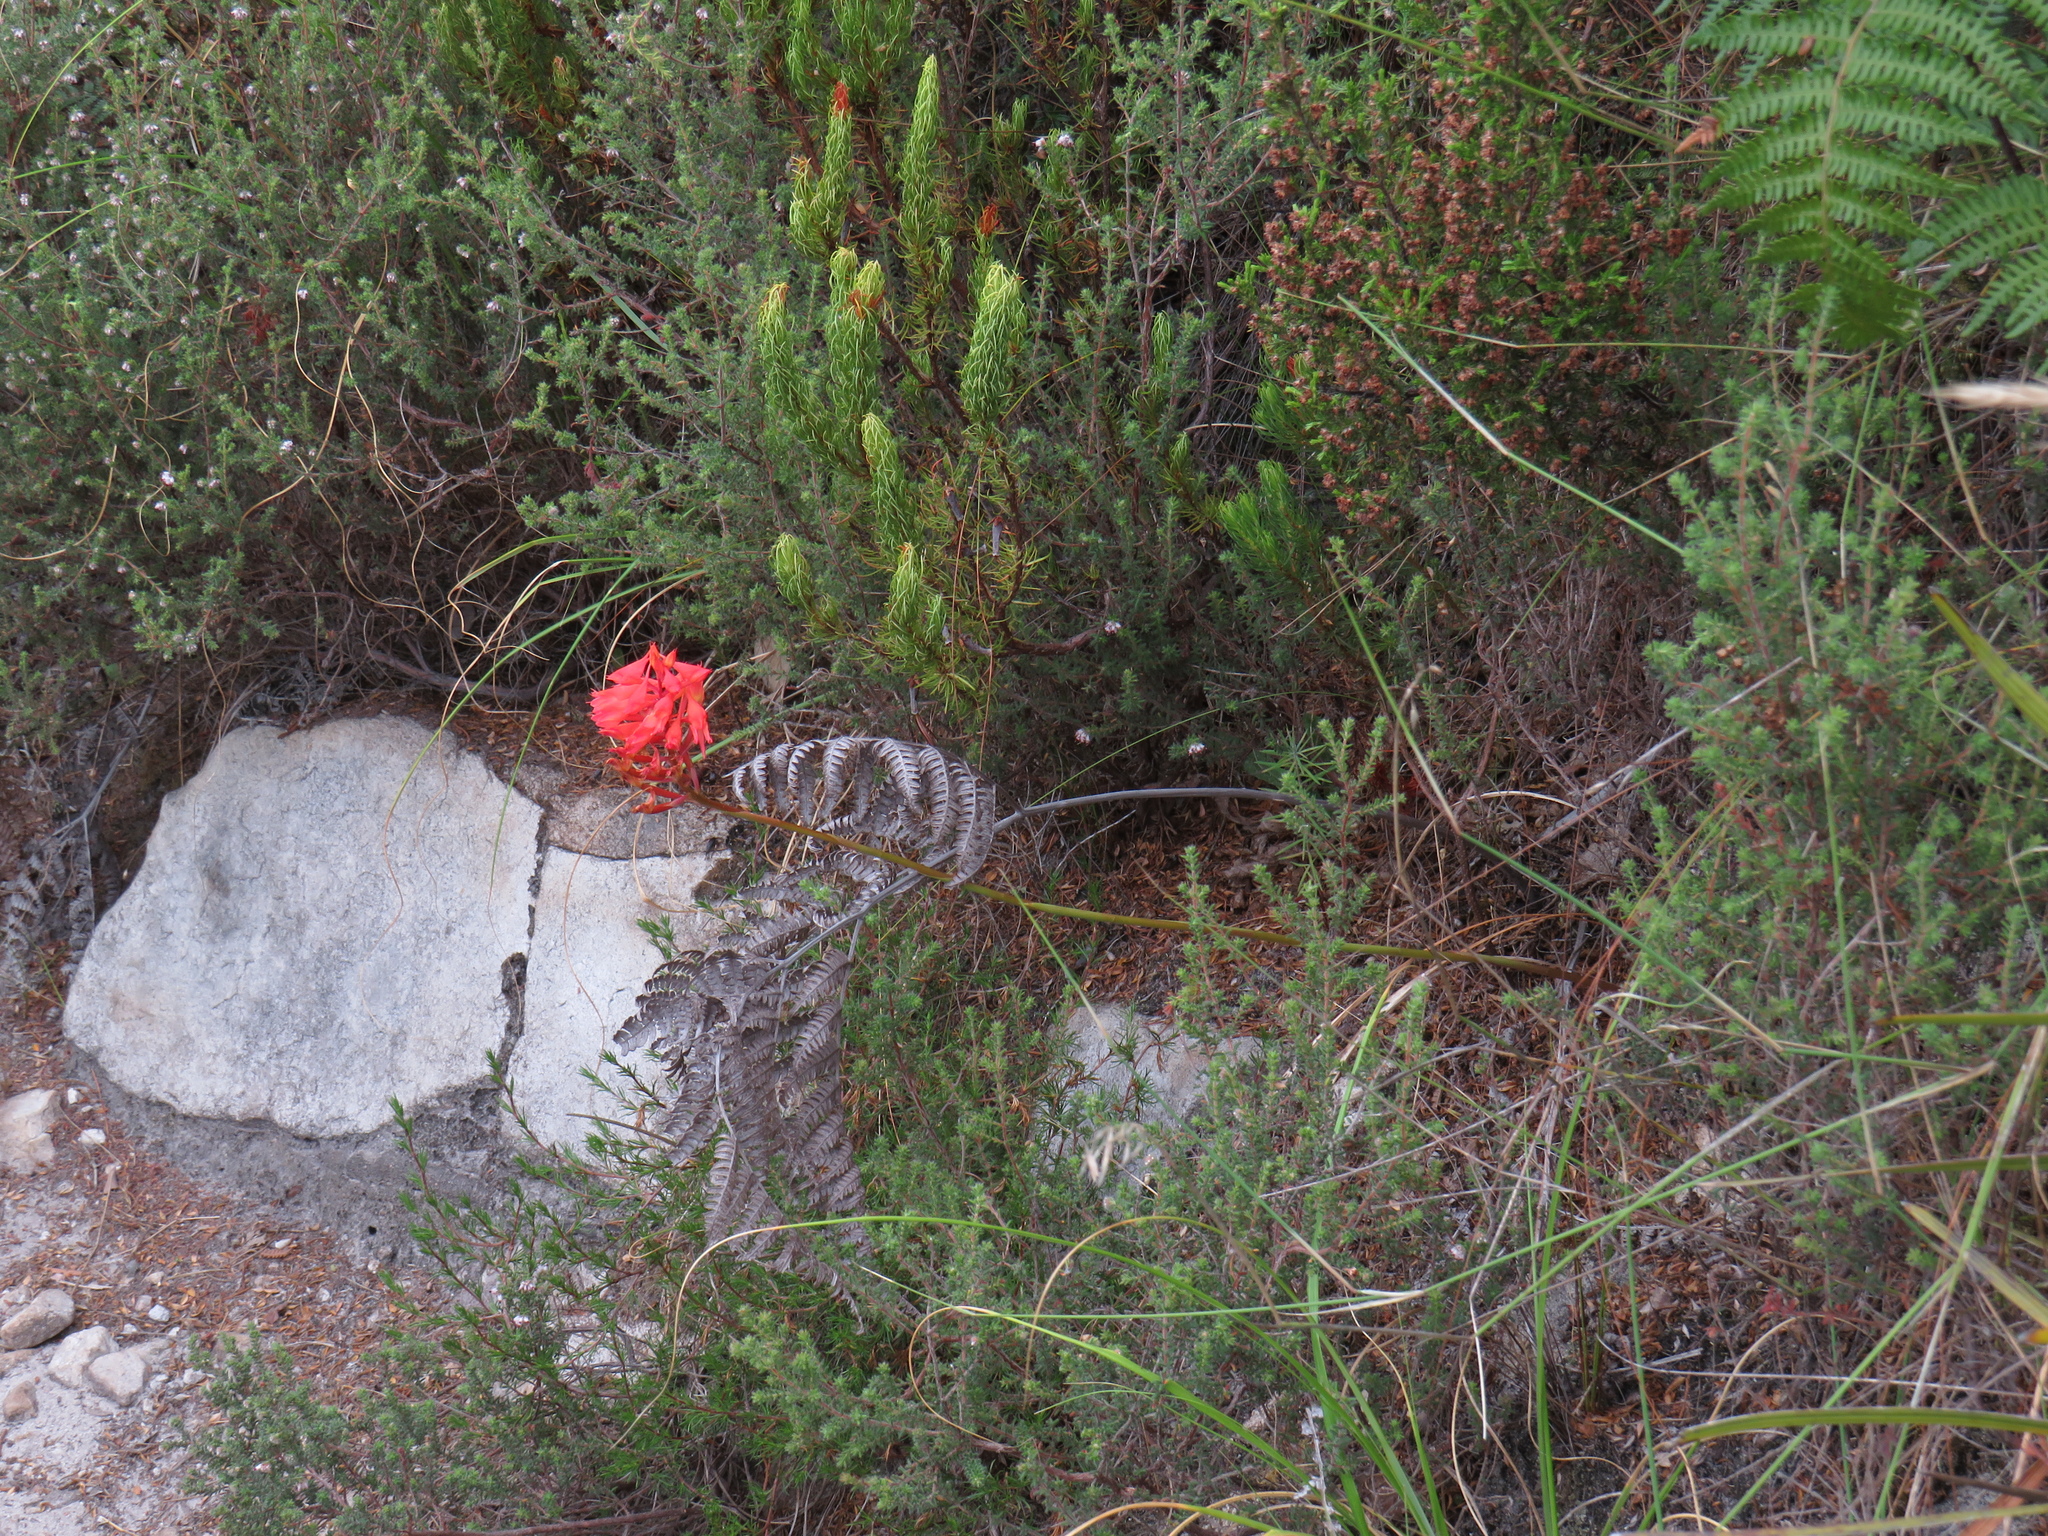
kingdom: Plantae
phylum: Tracheophyta
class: Liliopsida
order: Asparagales
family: Orchidaceae
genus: Disa
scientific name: Disa ferruginea
